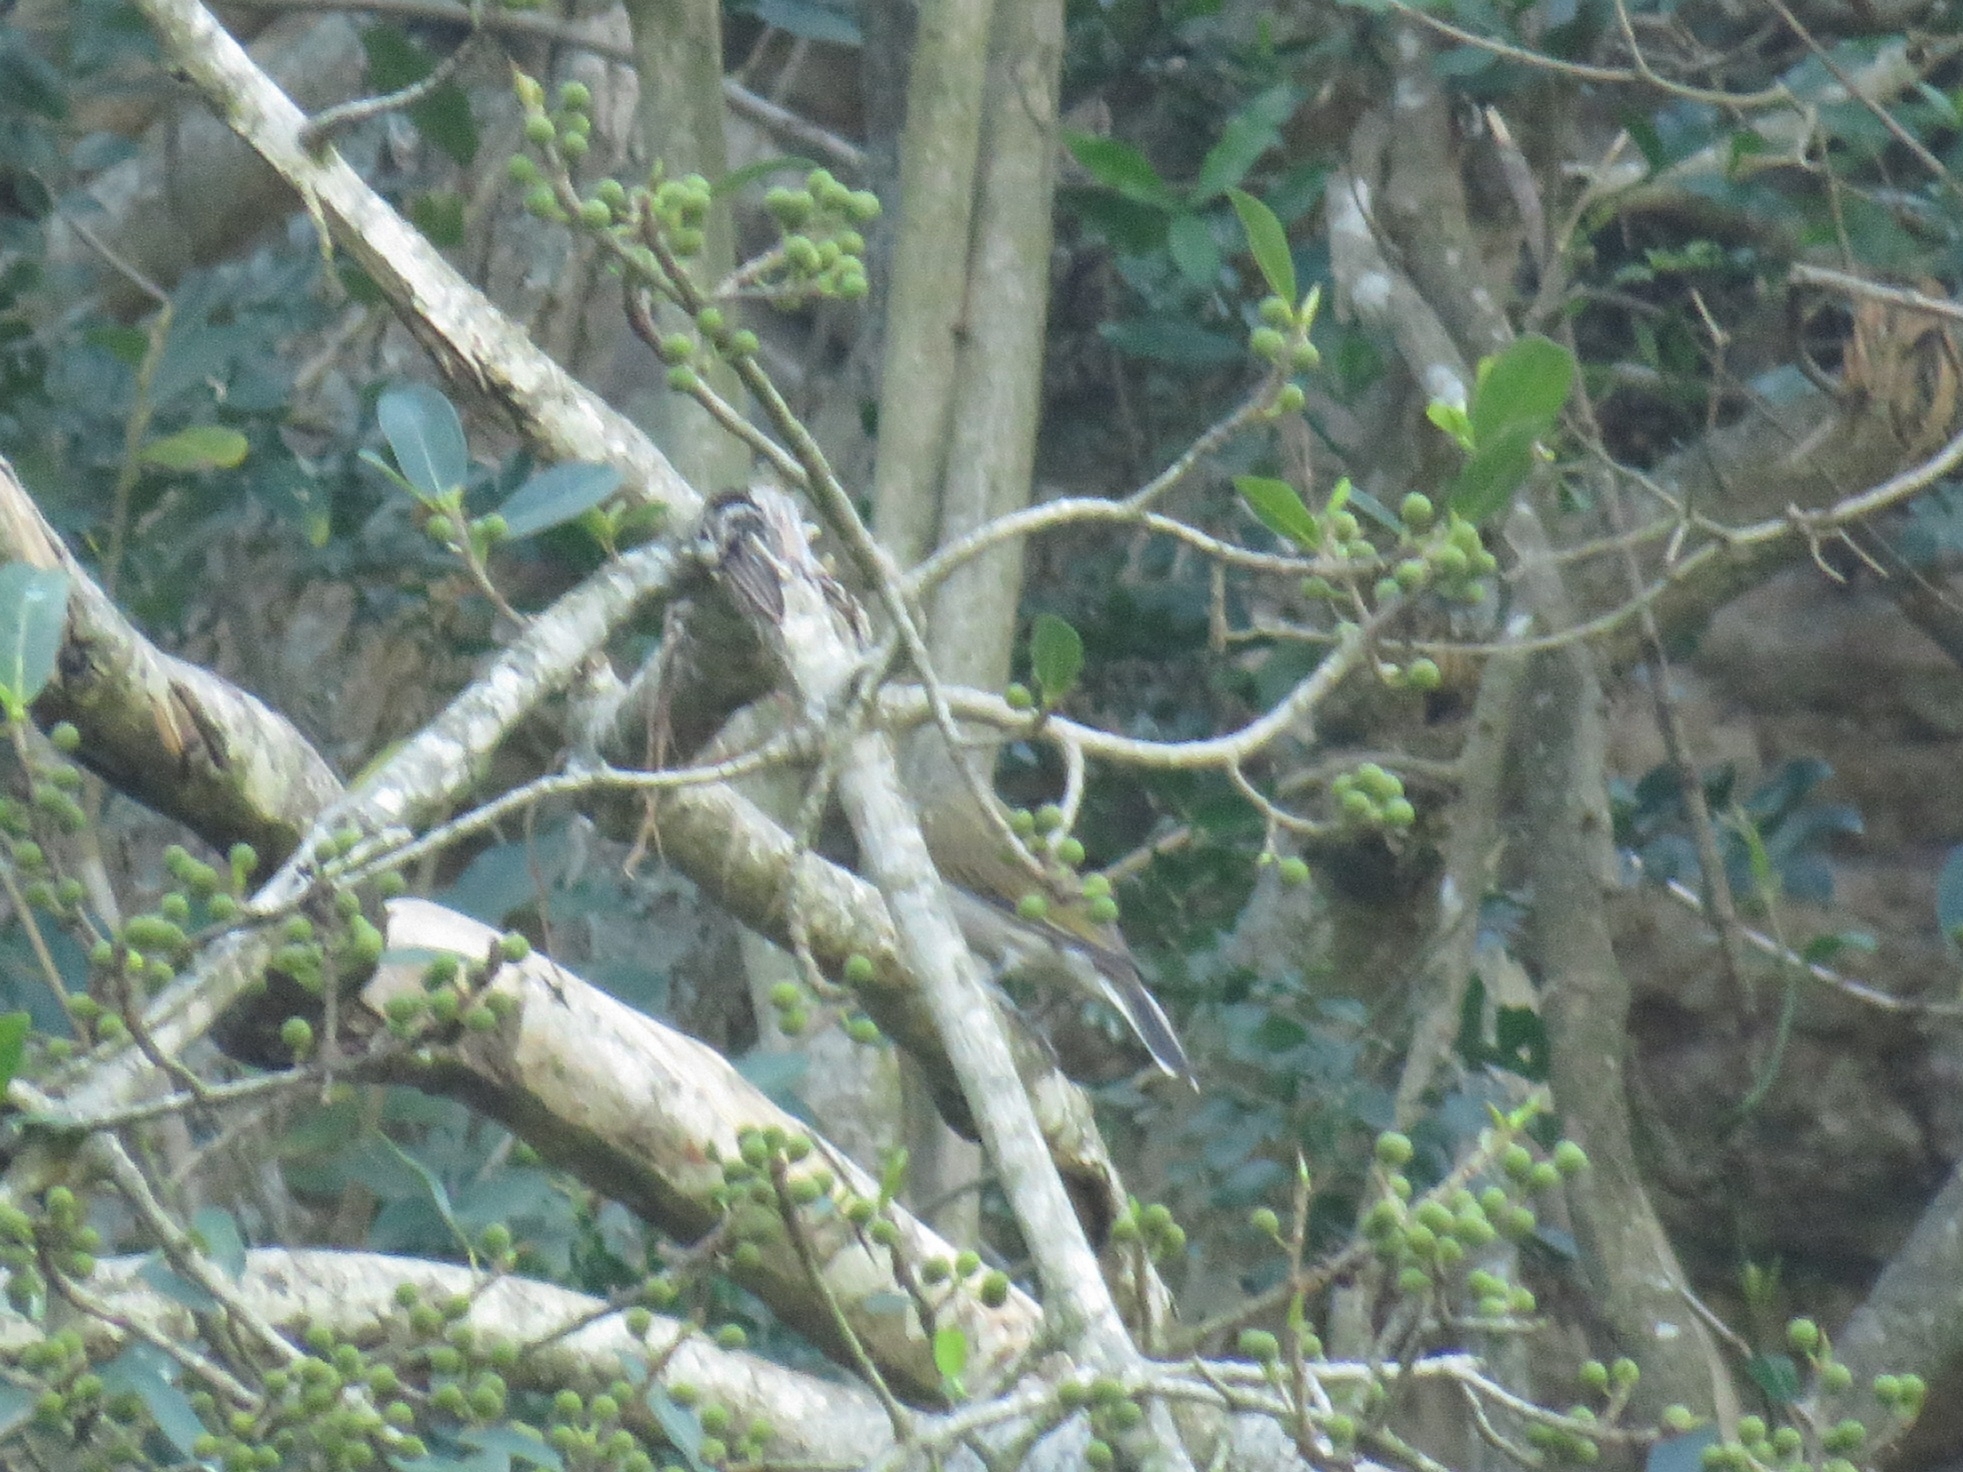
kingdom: Animalia
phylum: Chordata
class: Aves
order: Piciformes
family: Indicatoridae
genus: Indicator
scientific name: Indicator minor
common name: Lesser honeyguide
